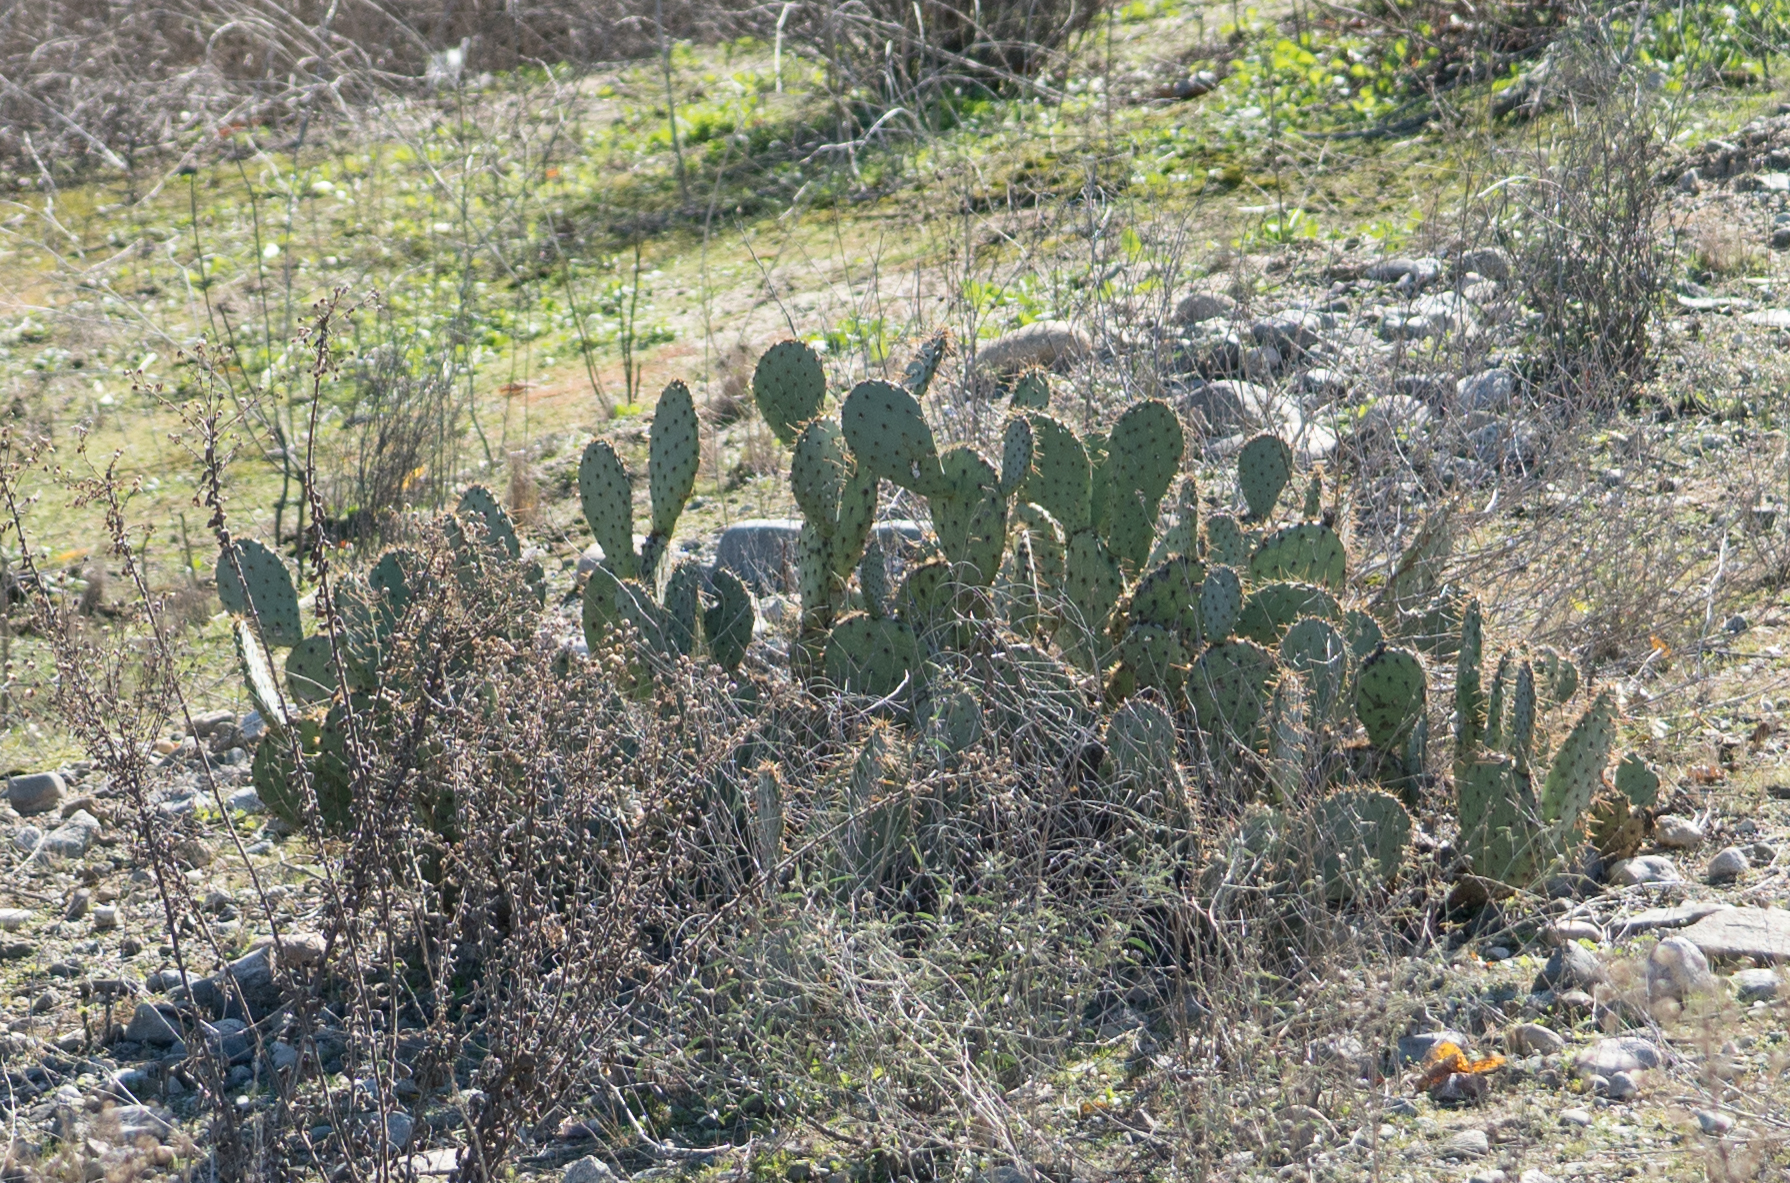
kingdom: Plantae
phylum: Tracheophyta
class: Magnoliopsida
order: Caryophyllales
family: Cactaceae
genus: Opuntia
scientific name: Opuntia
